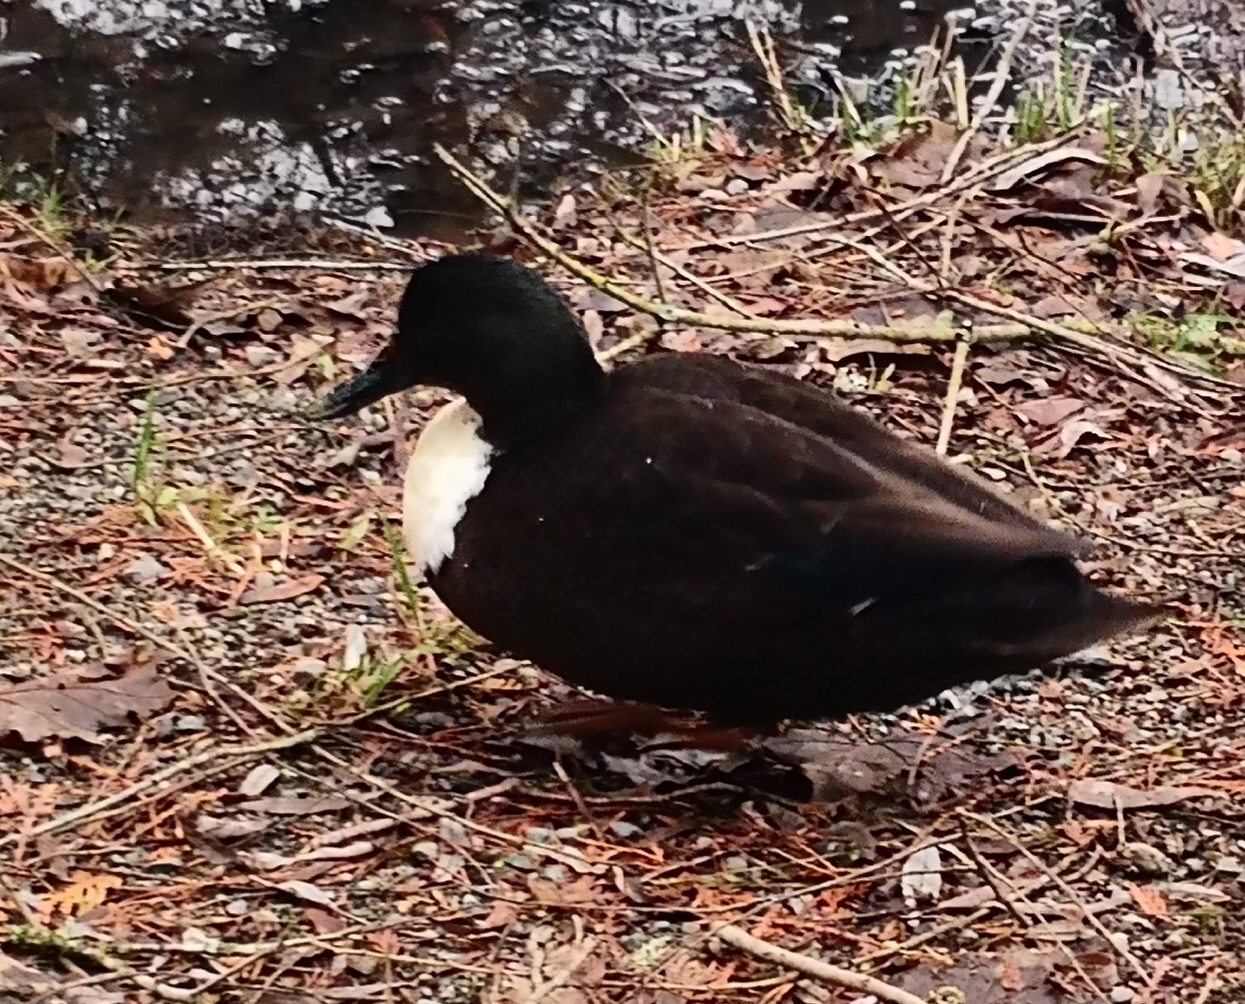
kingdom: Animalia
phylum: Chordata
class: Aves
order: Anseriformes
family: Anatidae
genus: Anas
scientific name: Anas platyrhynchos
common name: Mallard
